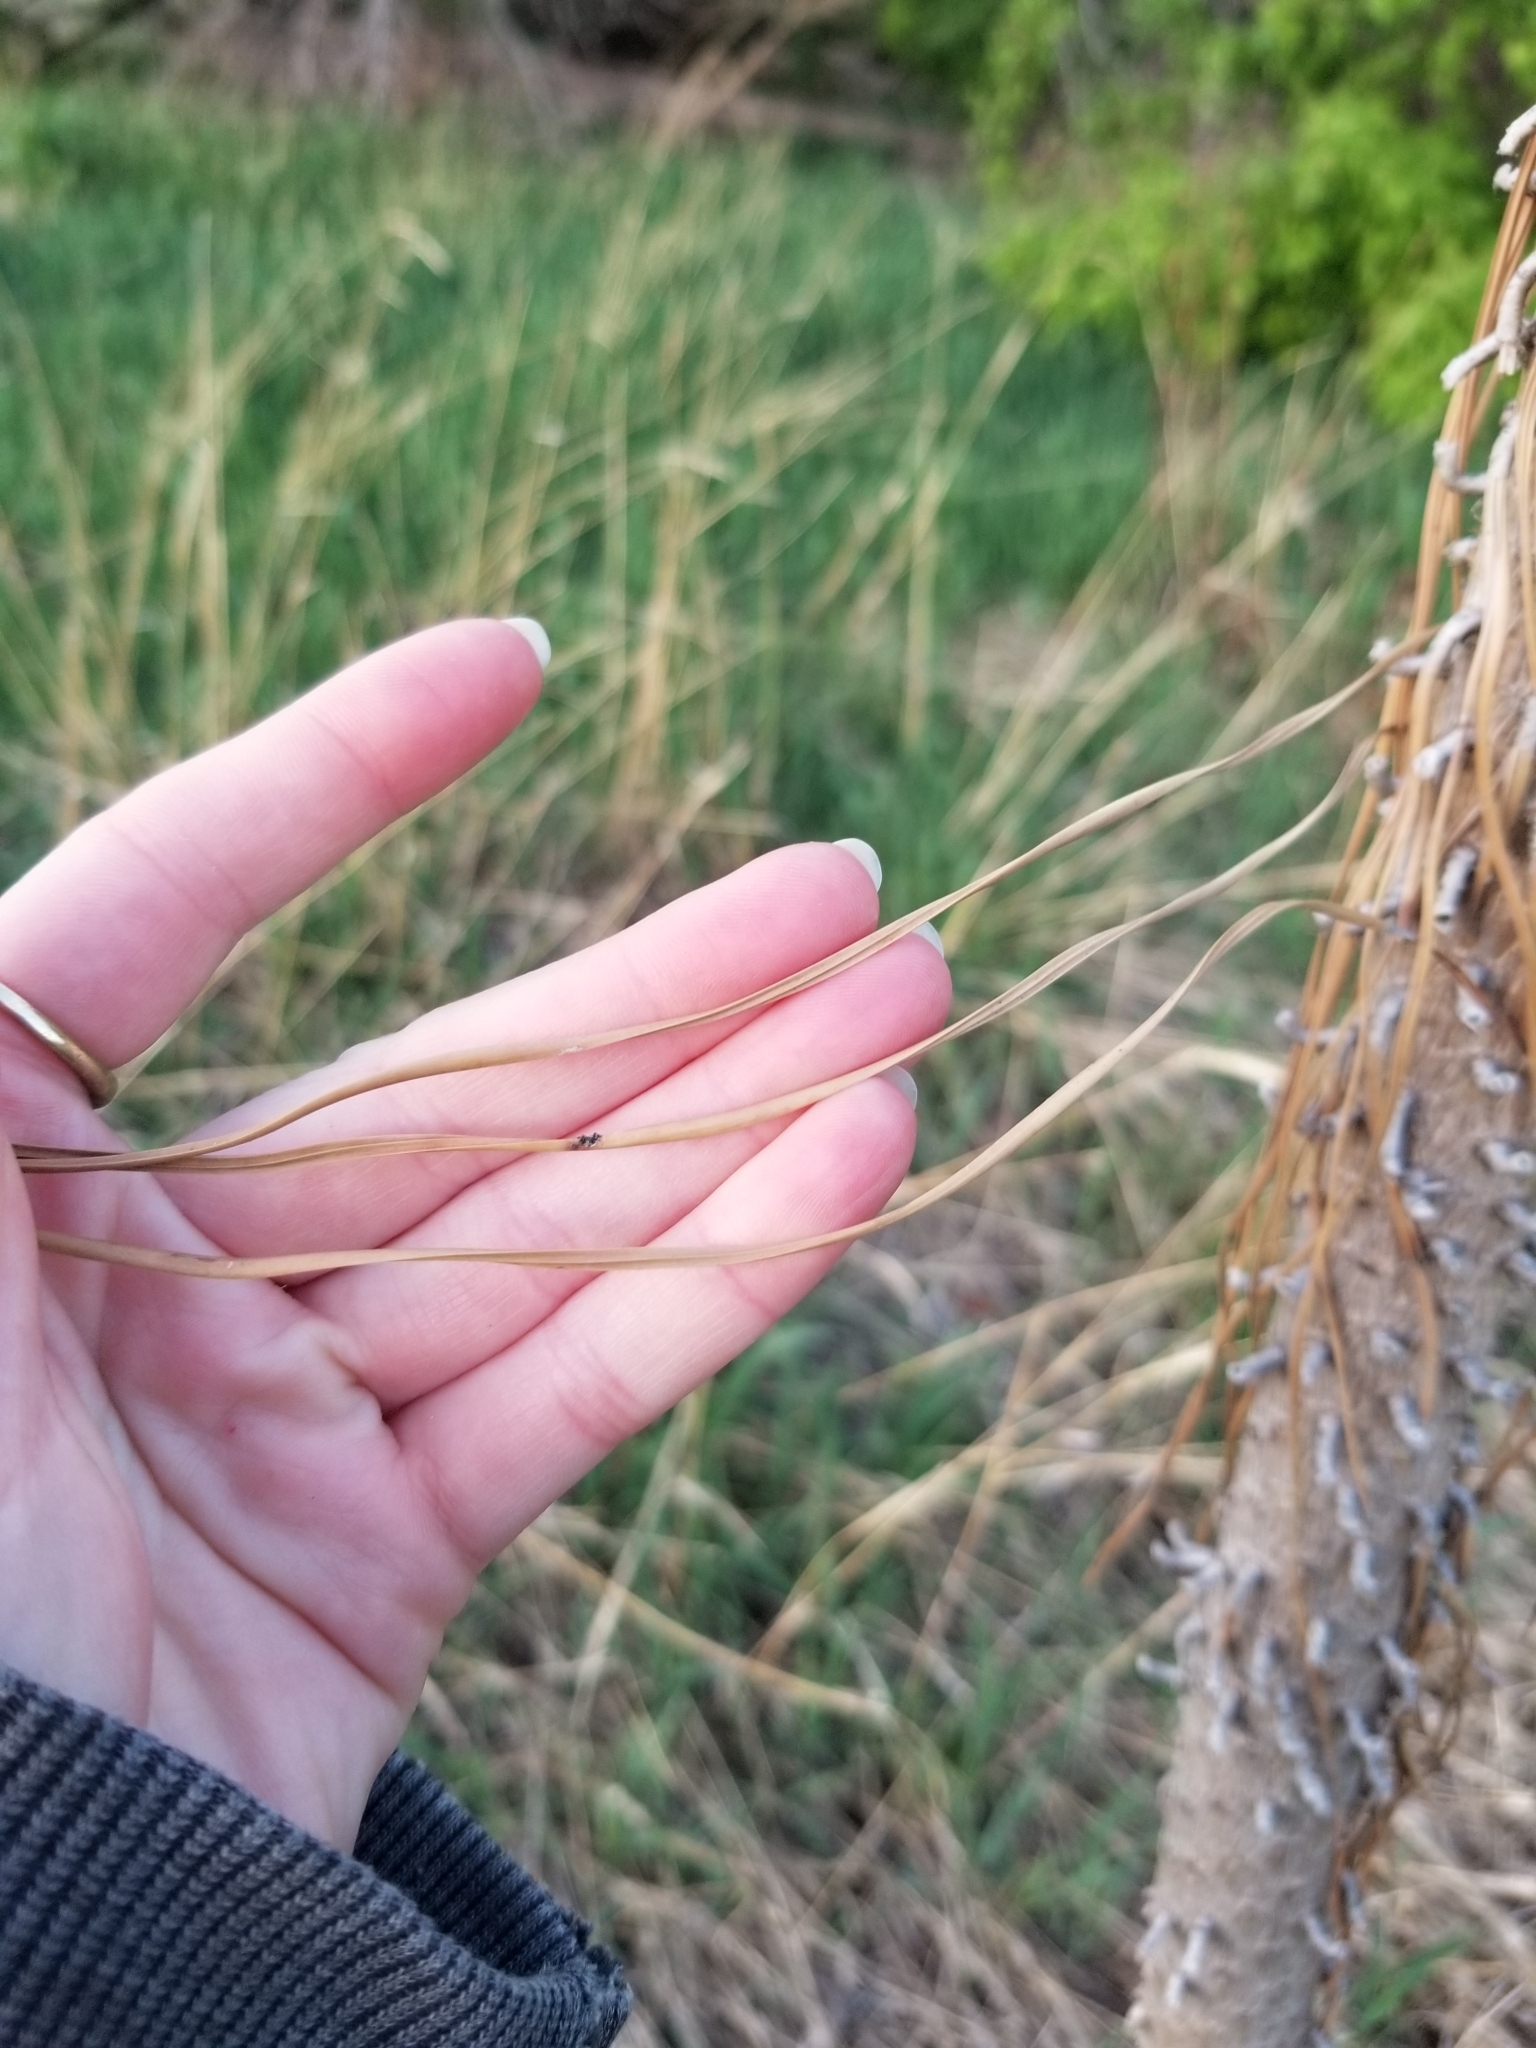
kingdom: Plantae
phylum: Tracheophyta
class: Pinopsida
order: Pinales
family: Pinaceae
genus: Pinus
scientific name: Pinus ponderosa
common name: Western yellow-pine
